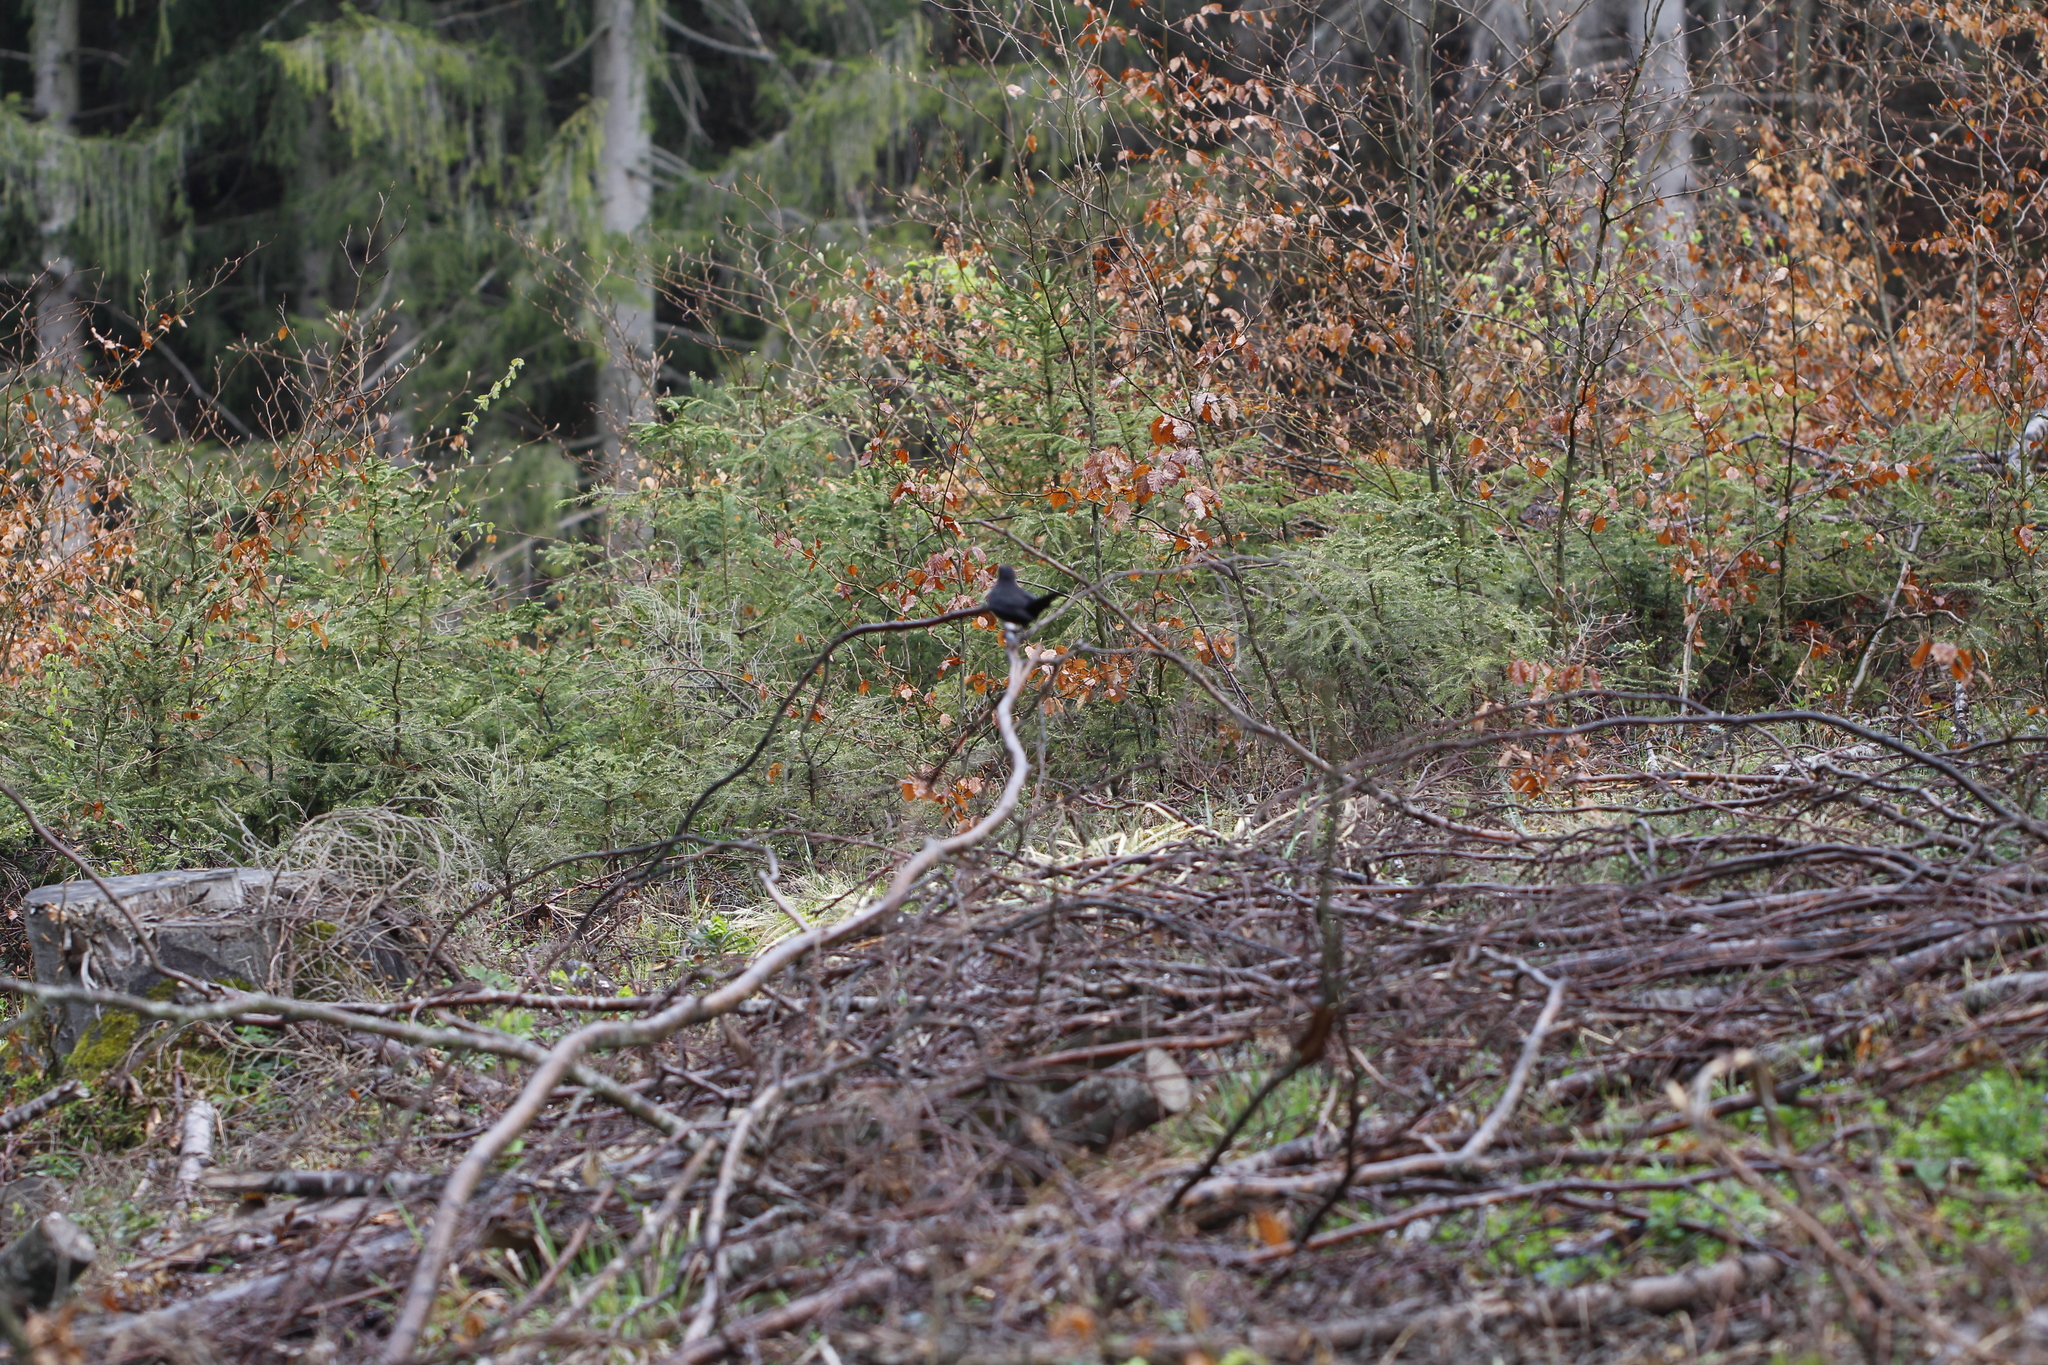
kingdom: Animalia
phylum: Chordata
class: Aves
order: Passeriformes
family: Turdidae
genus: Turdus
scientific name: Turdus merula
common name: Common blackbird
